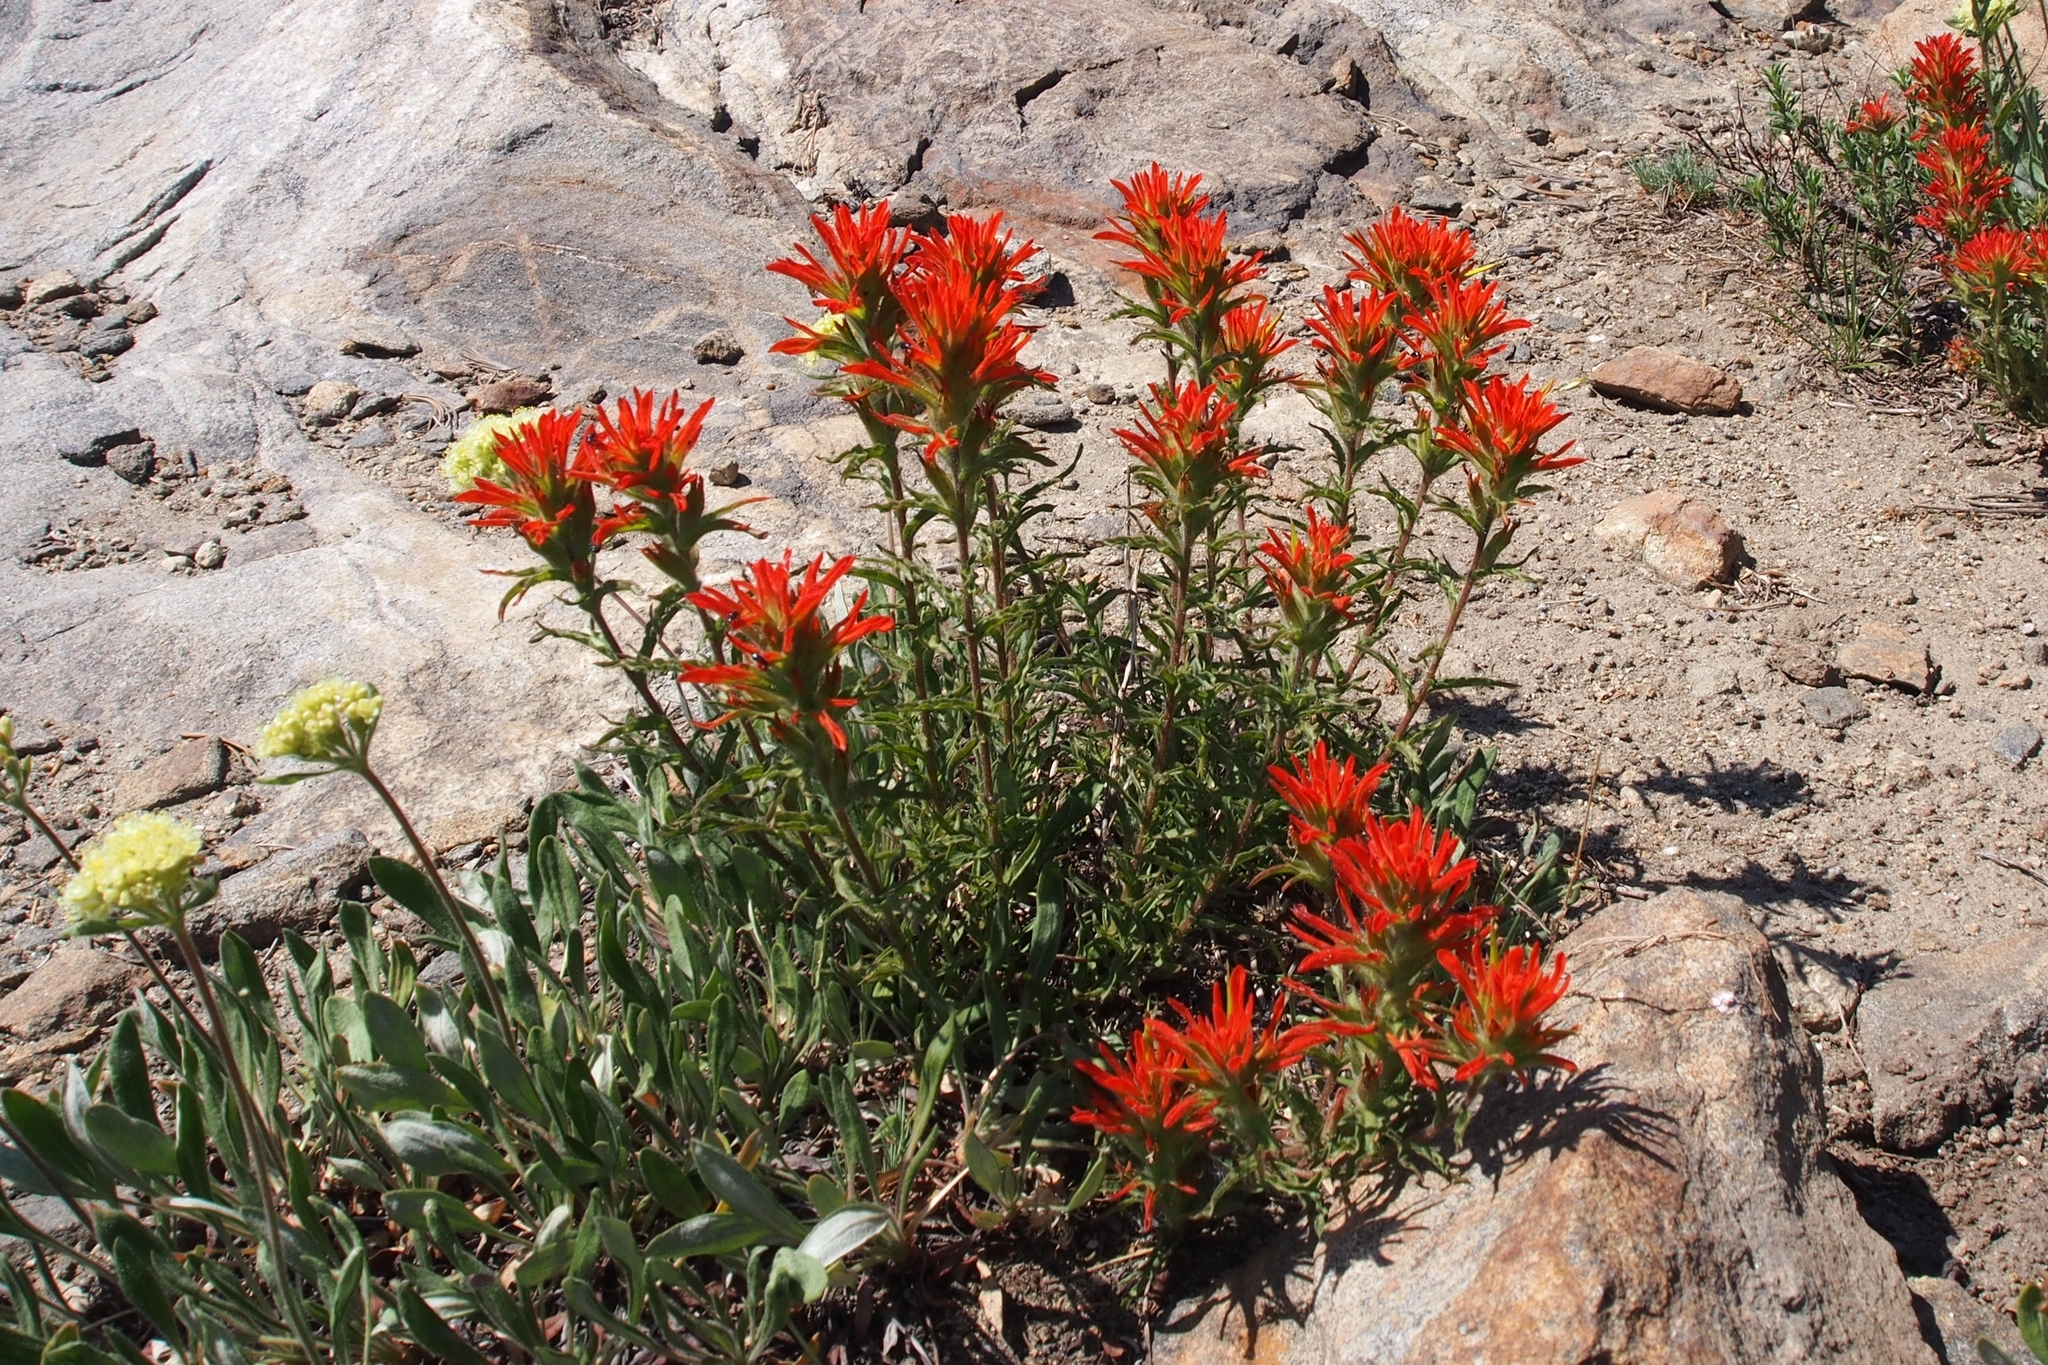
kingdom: Plantae
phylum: Tracheophyta
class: Magnoliopsida
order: Lamiales
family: Orobanchaceae
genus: Castilleja
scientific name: Castilleja applegatei
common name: Wavy-leaf paintbrush
